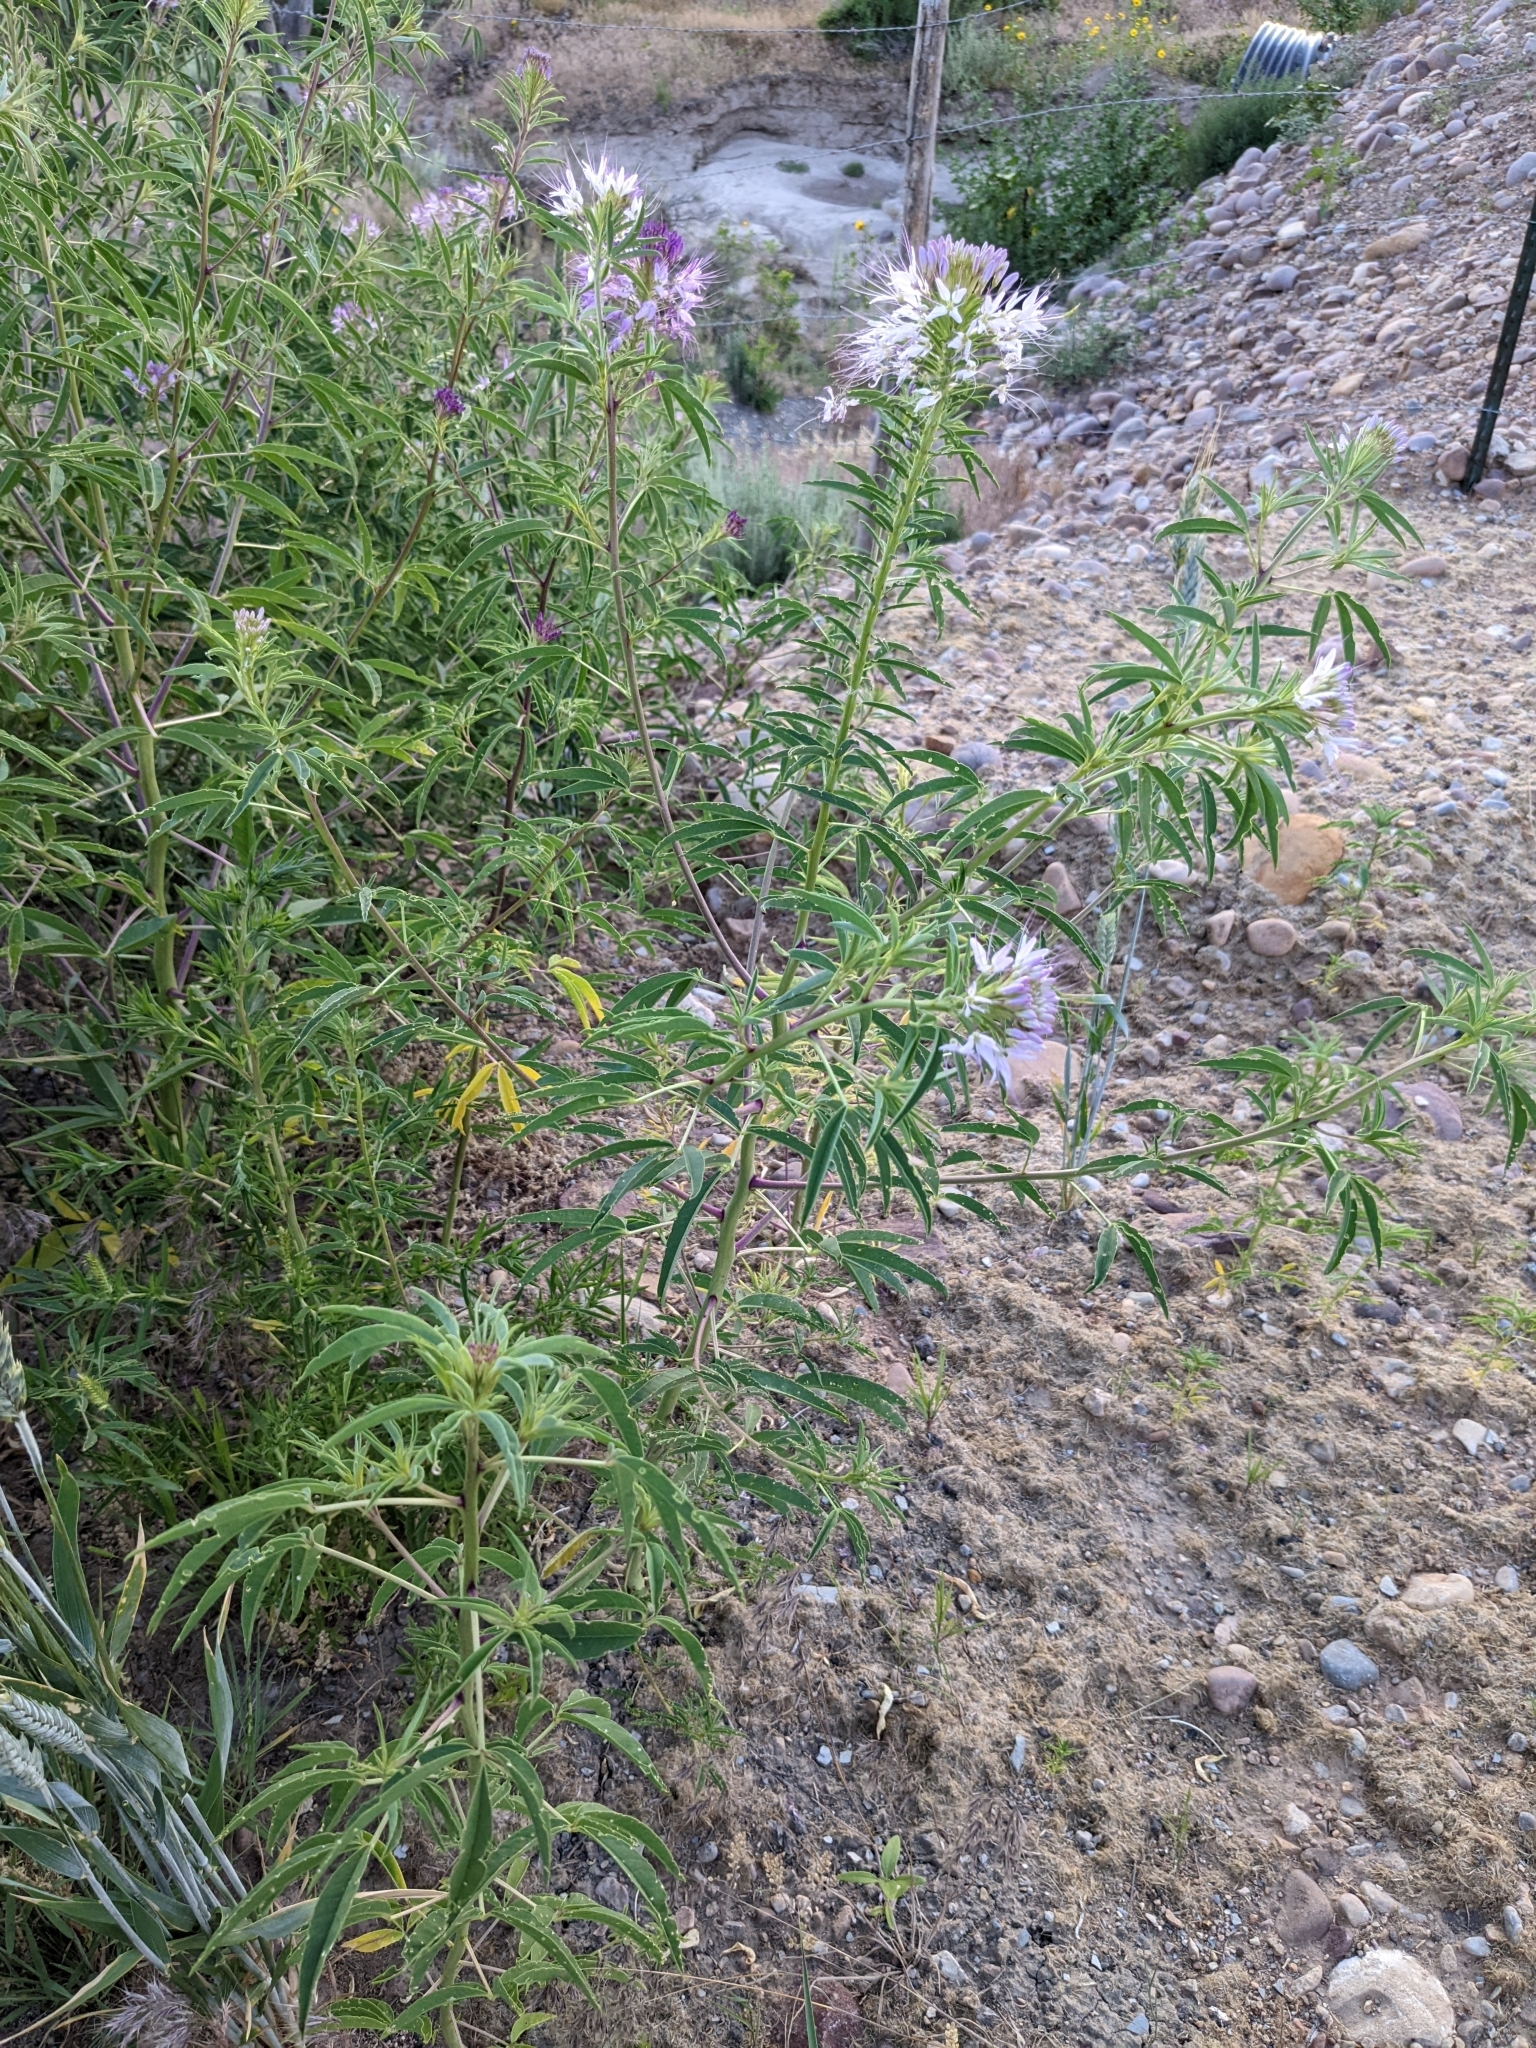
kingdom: Plantae
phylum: Tracheophyta
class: Magnoliopsida
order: Brassicales
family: Cleomaceae
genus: Cleomella
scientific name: Cleomella serrulata
